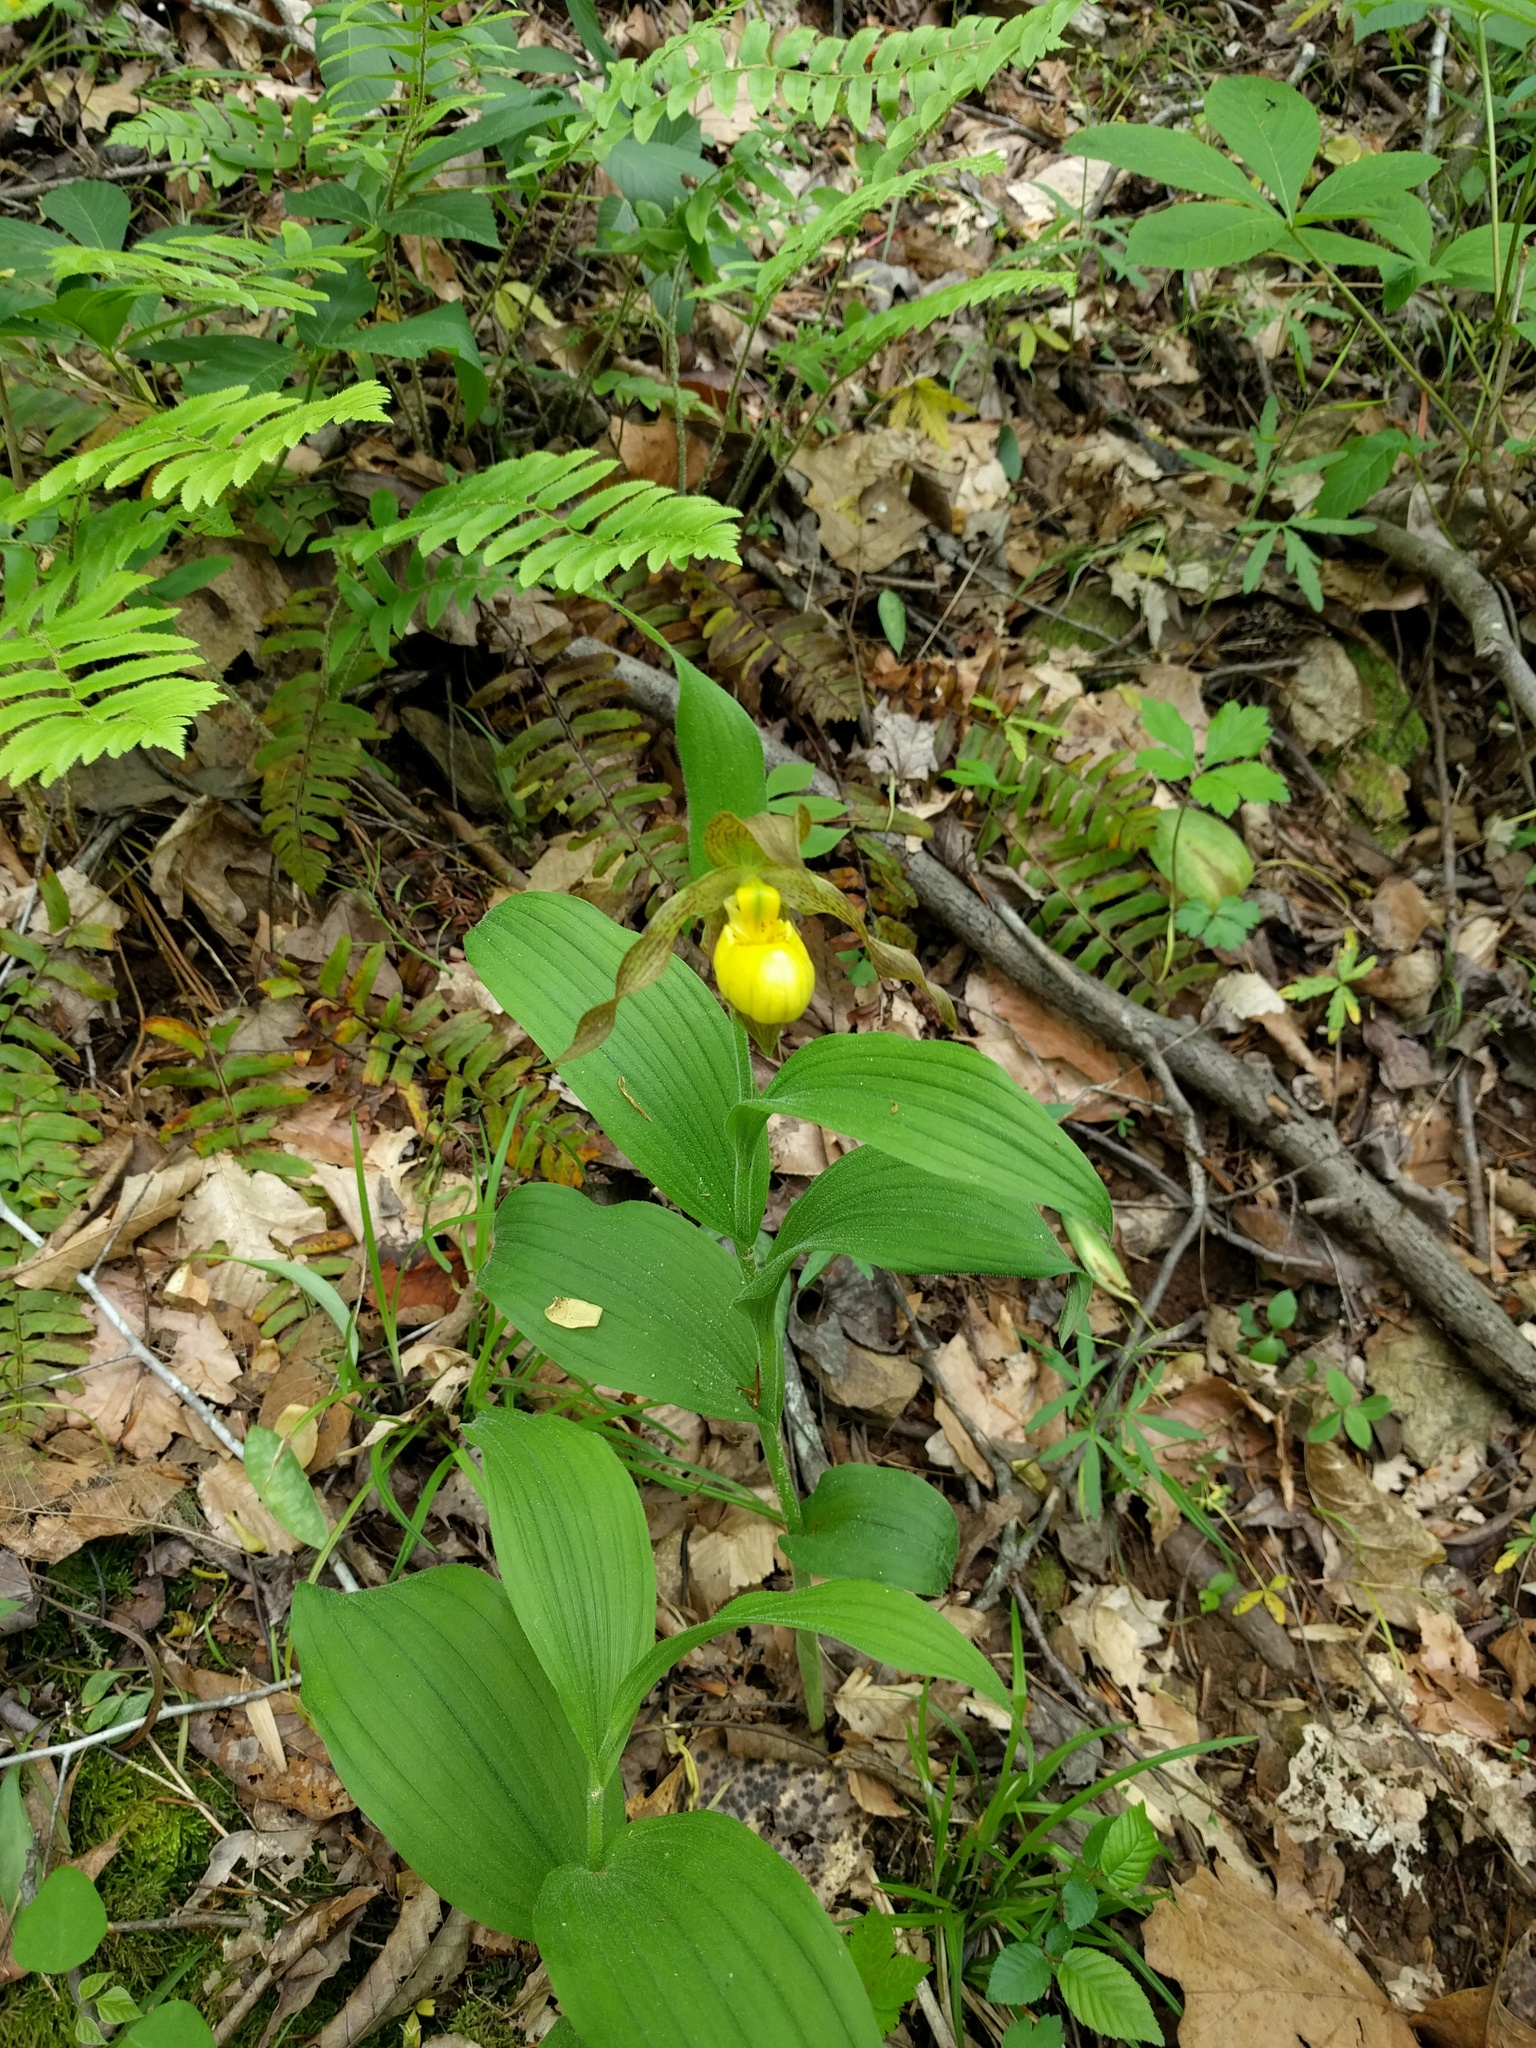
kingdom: Plantae
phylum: Tracheophyta
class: Liliopsida
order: Asparagales
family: Orchidaceae
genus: Cypripedium
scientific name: Cypripedium parviflorum
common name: American yellow lady's-slipper
